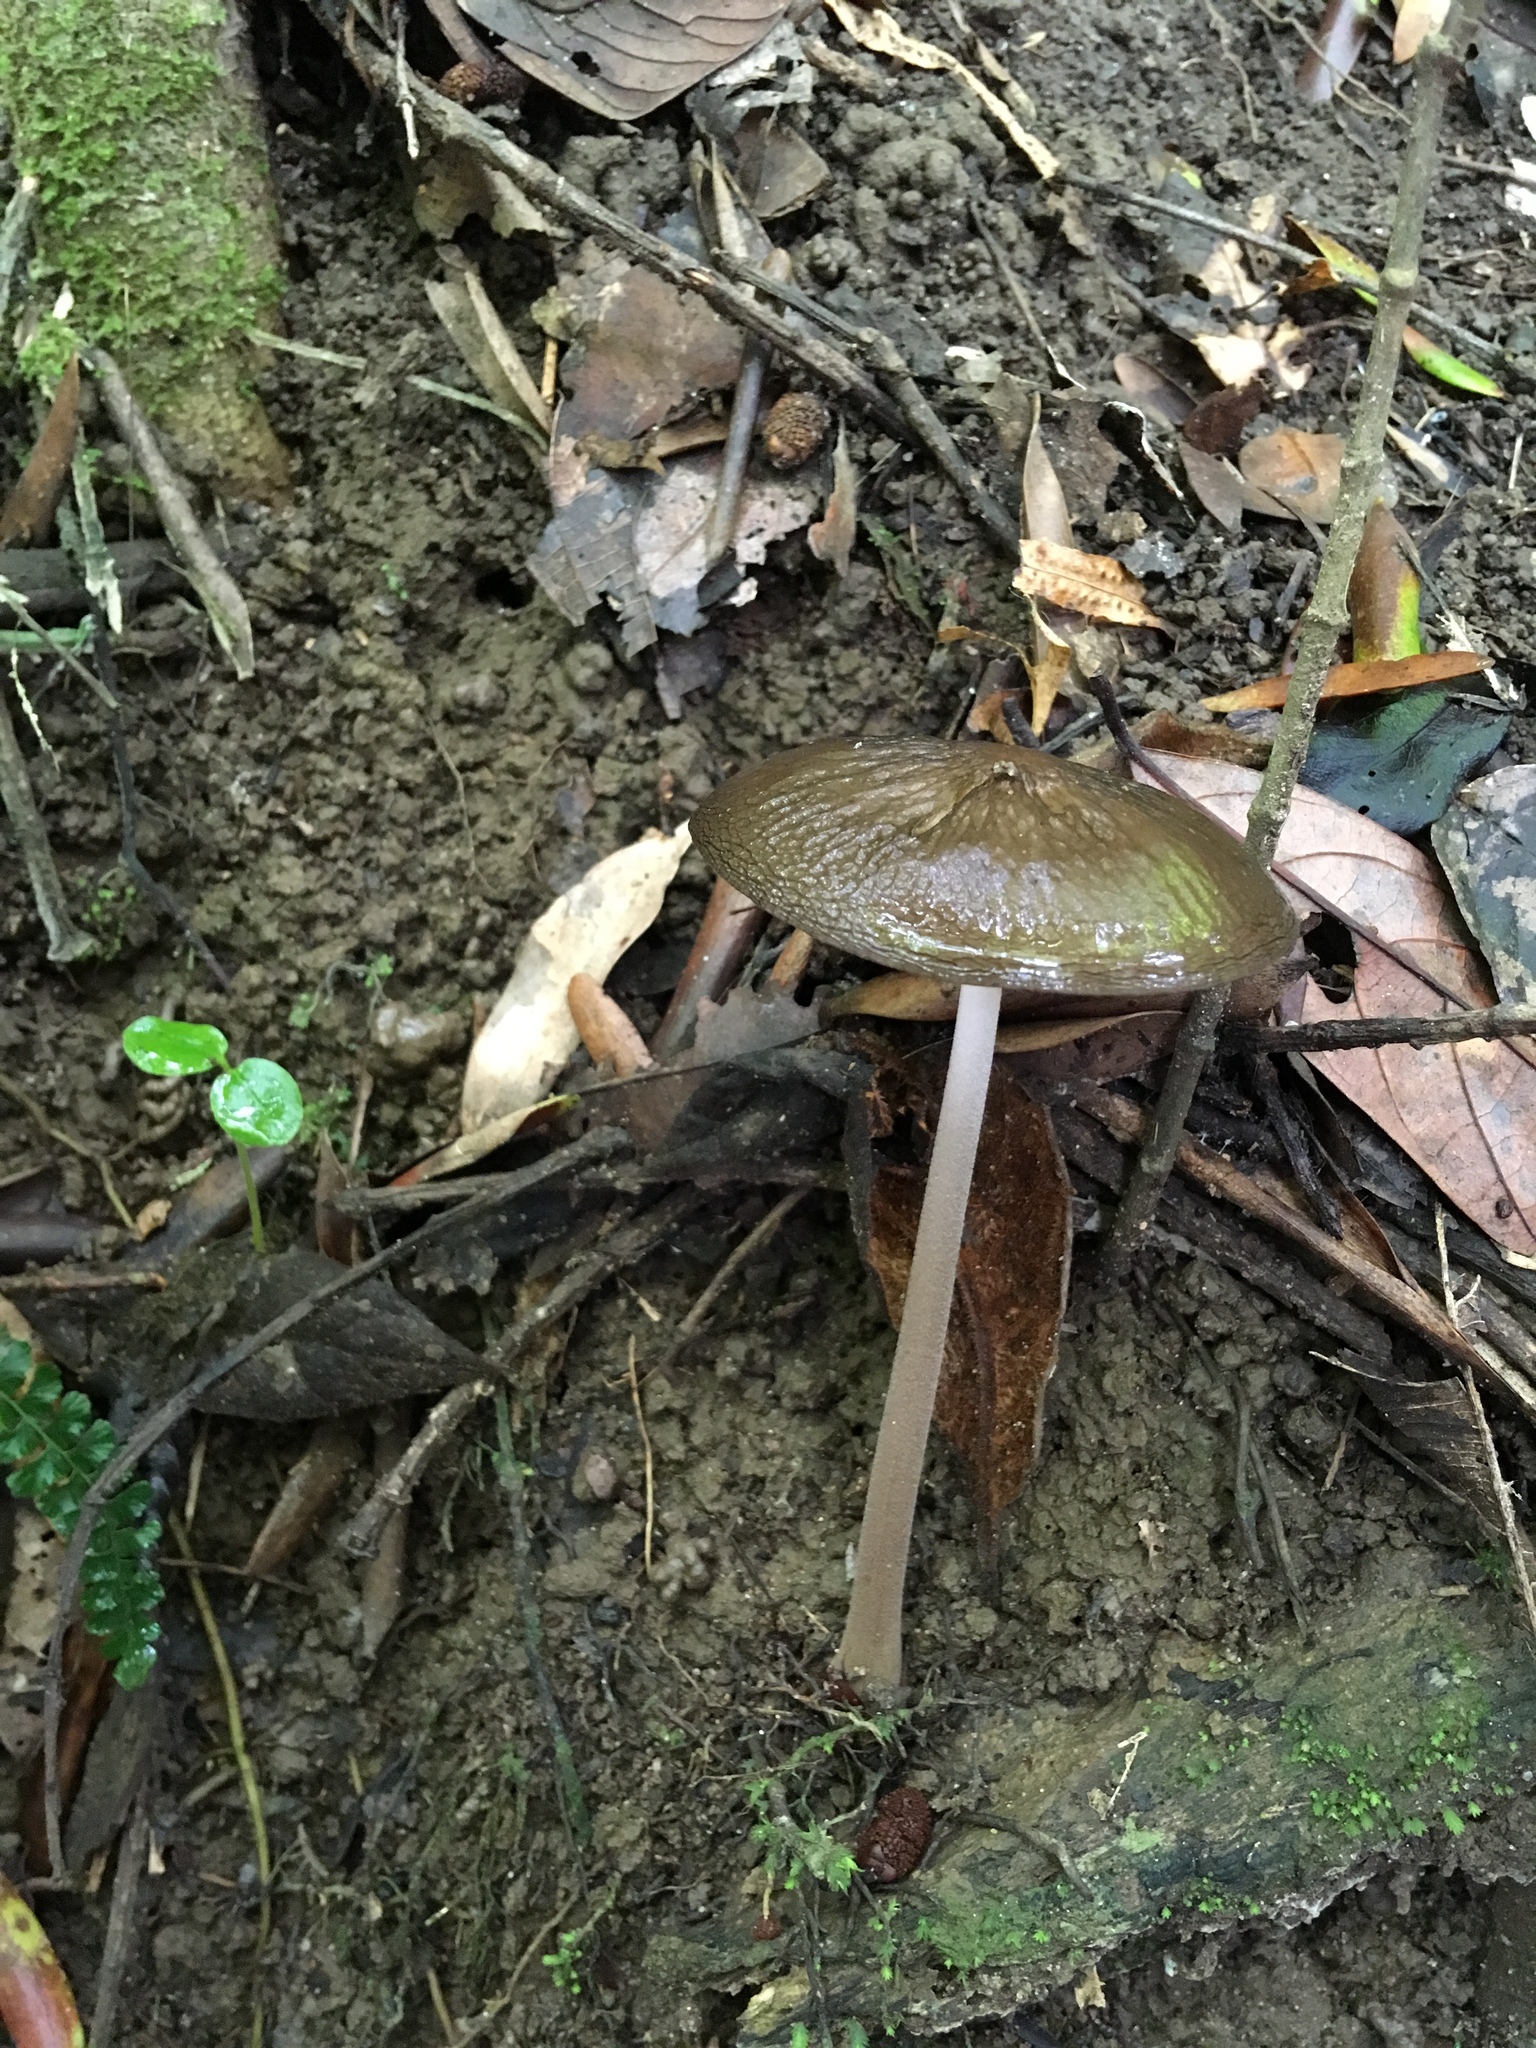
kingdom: Fungi
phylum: Basidiomycota
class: Agaricomycetes
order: Agaricales
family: Physalacriaceae
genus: Protoxerula
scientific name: Protoxerula flavo-olivacea
